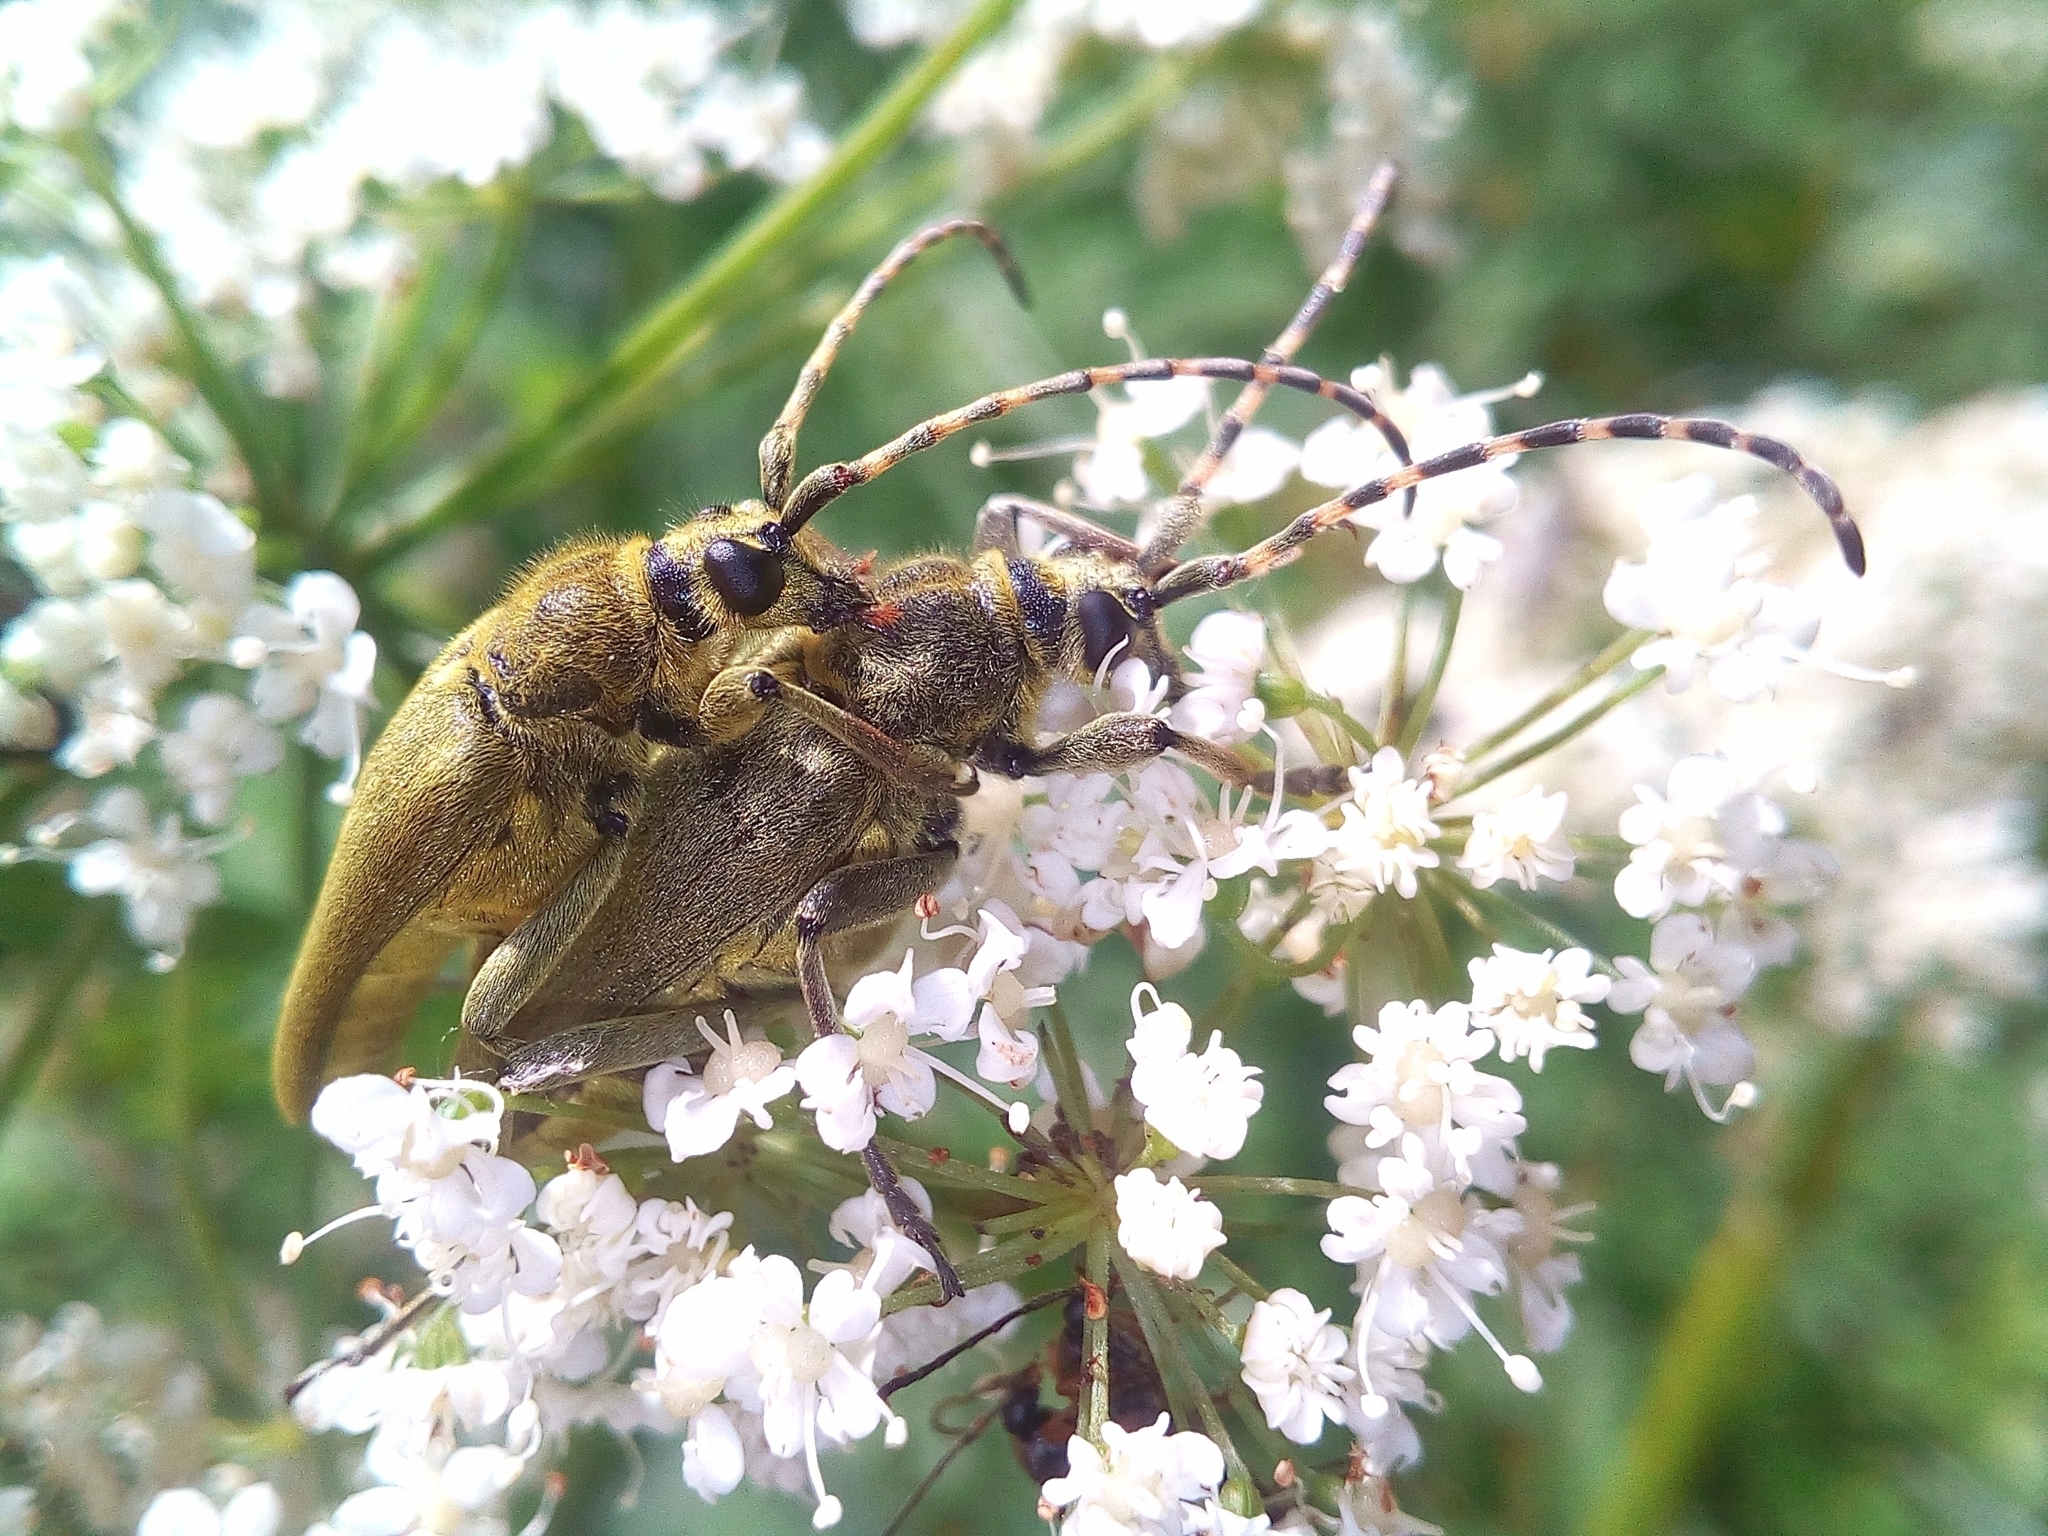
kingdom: Animalia
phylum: Arthropoda
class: Insecta
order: Coleoptera
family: Cerambycidae
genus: Lepturobosca
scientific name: Lepturobosca virens
